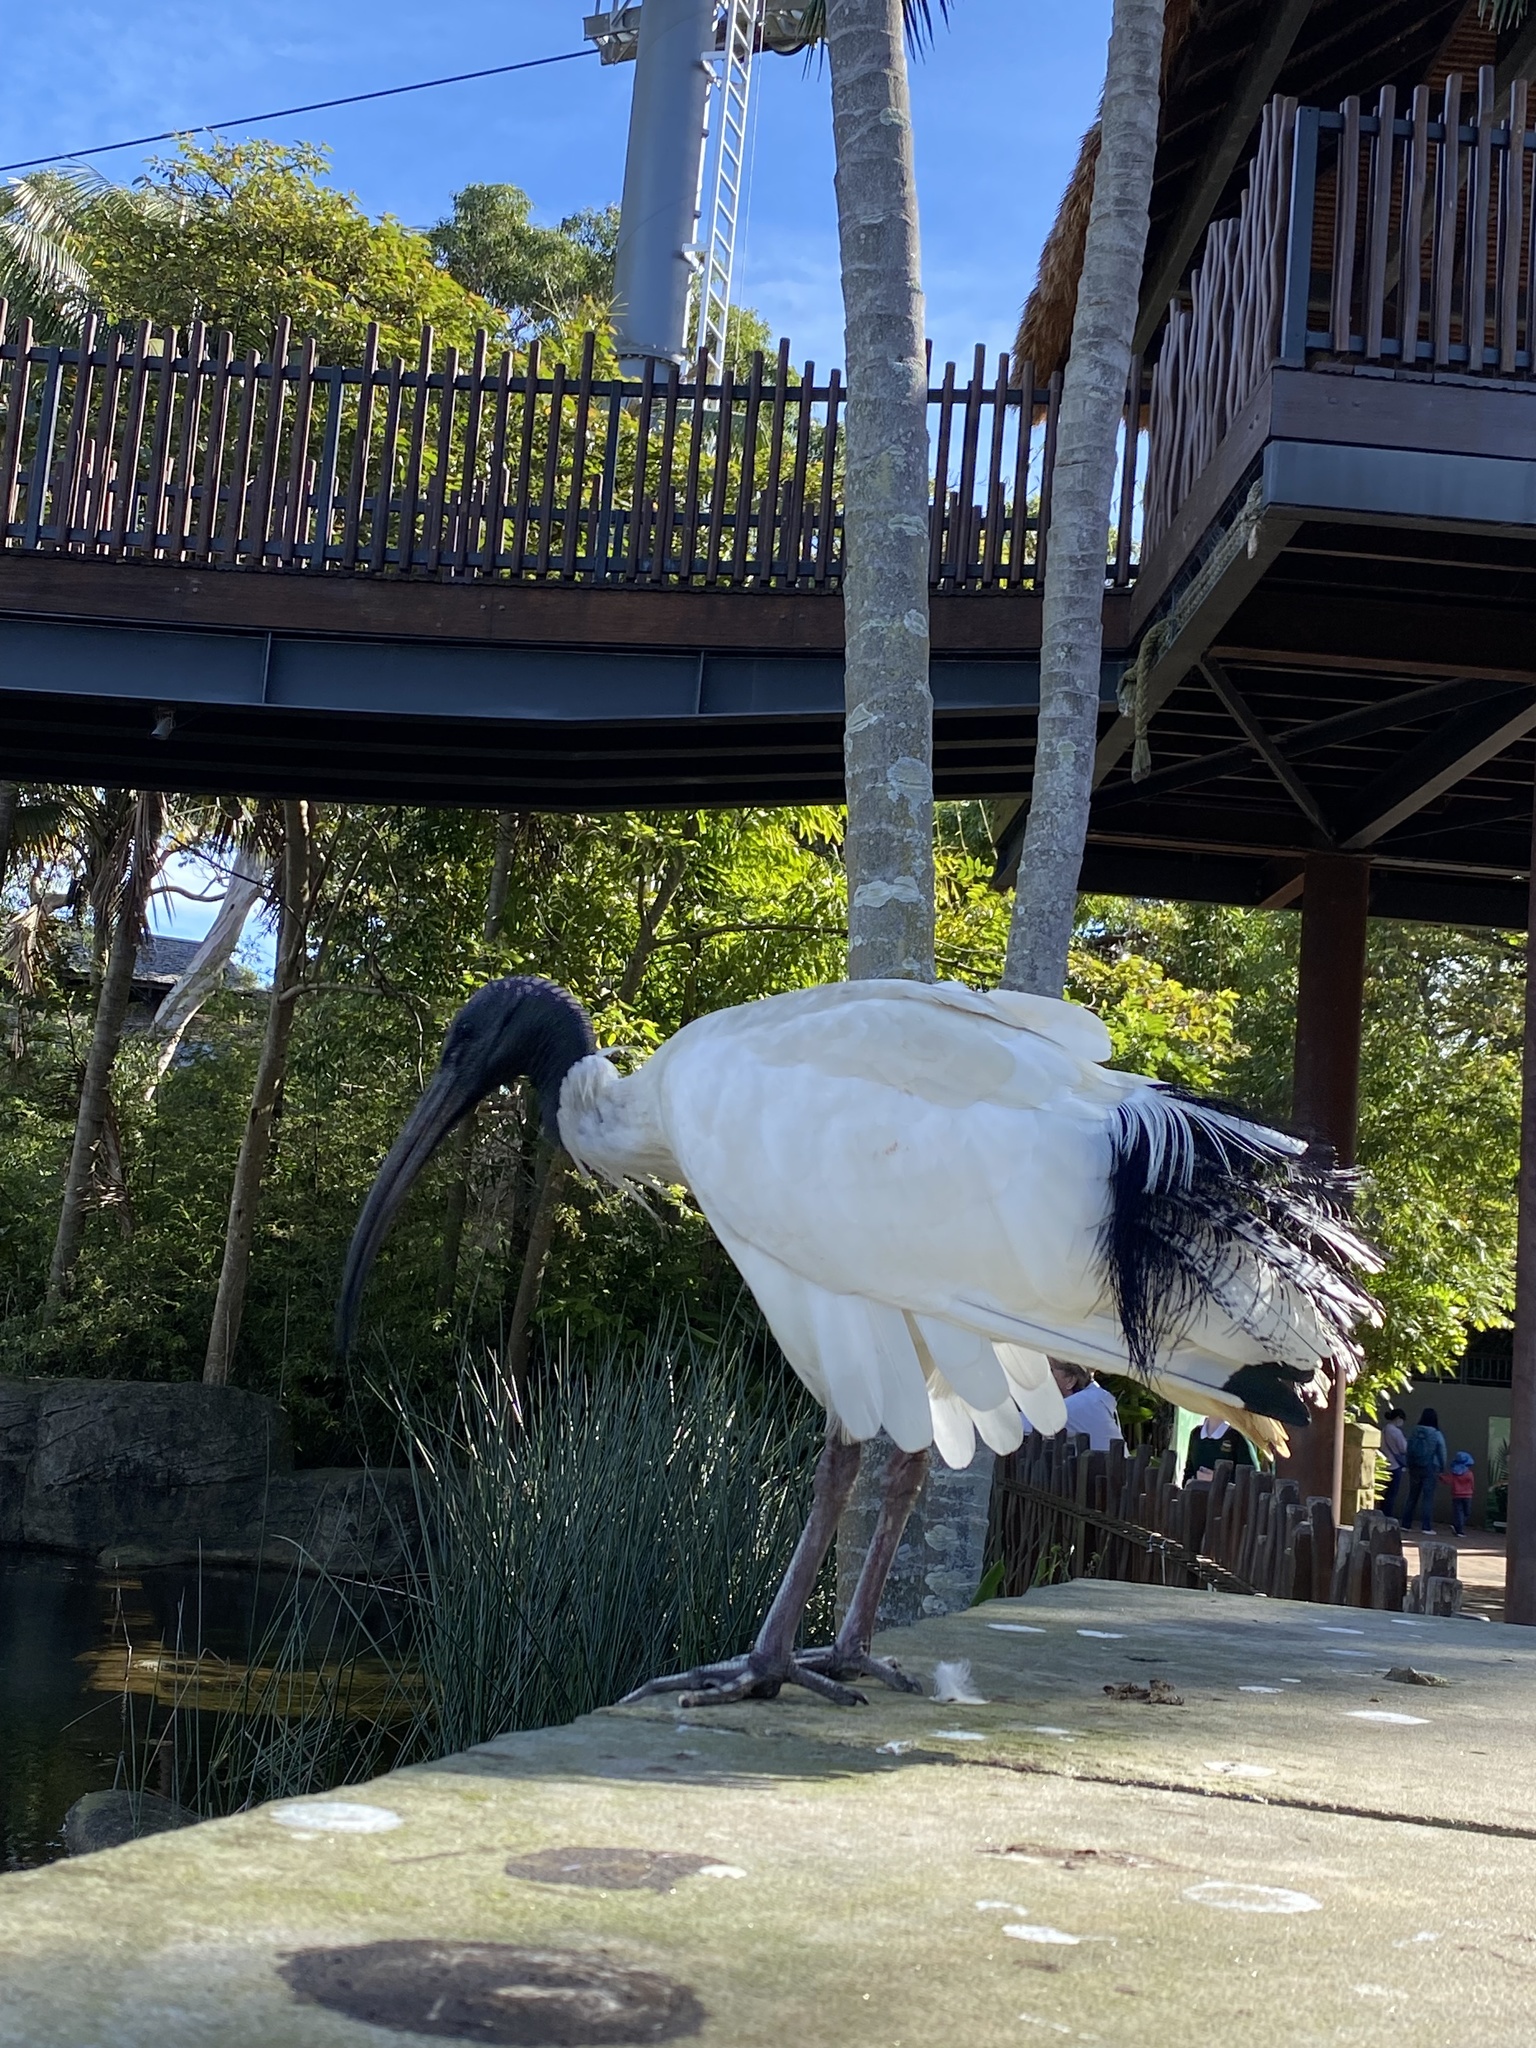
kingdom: Animalia
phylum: Chordata
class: Aves
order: Pelecaniformes
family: Threskiornithidae
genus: Threskiornis
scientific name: Threskiornis molucca
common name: Australian white ibis
